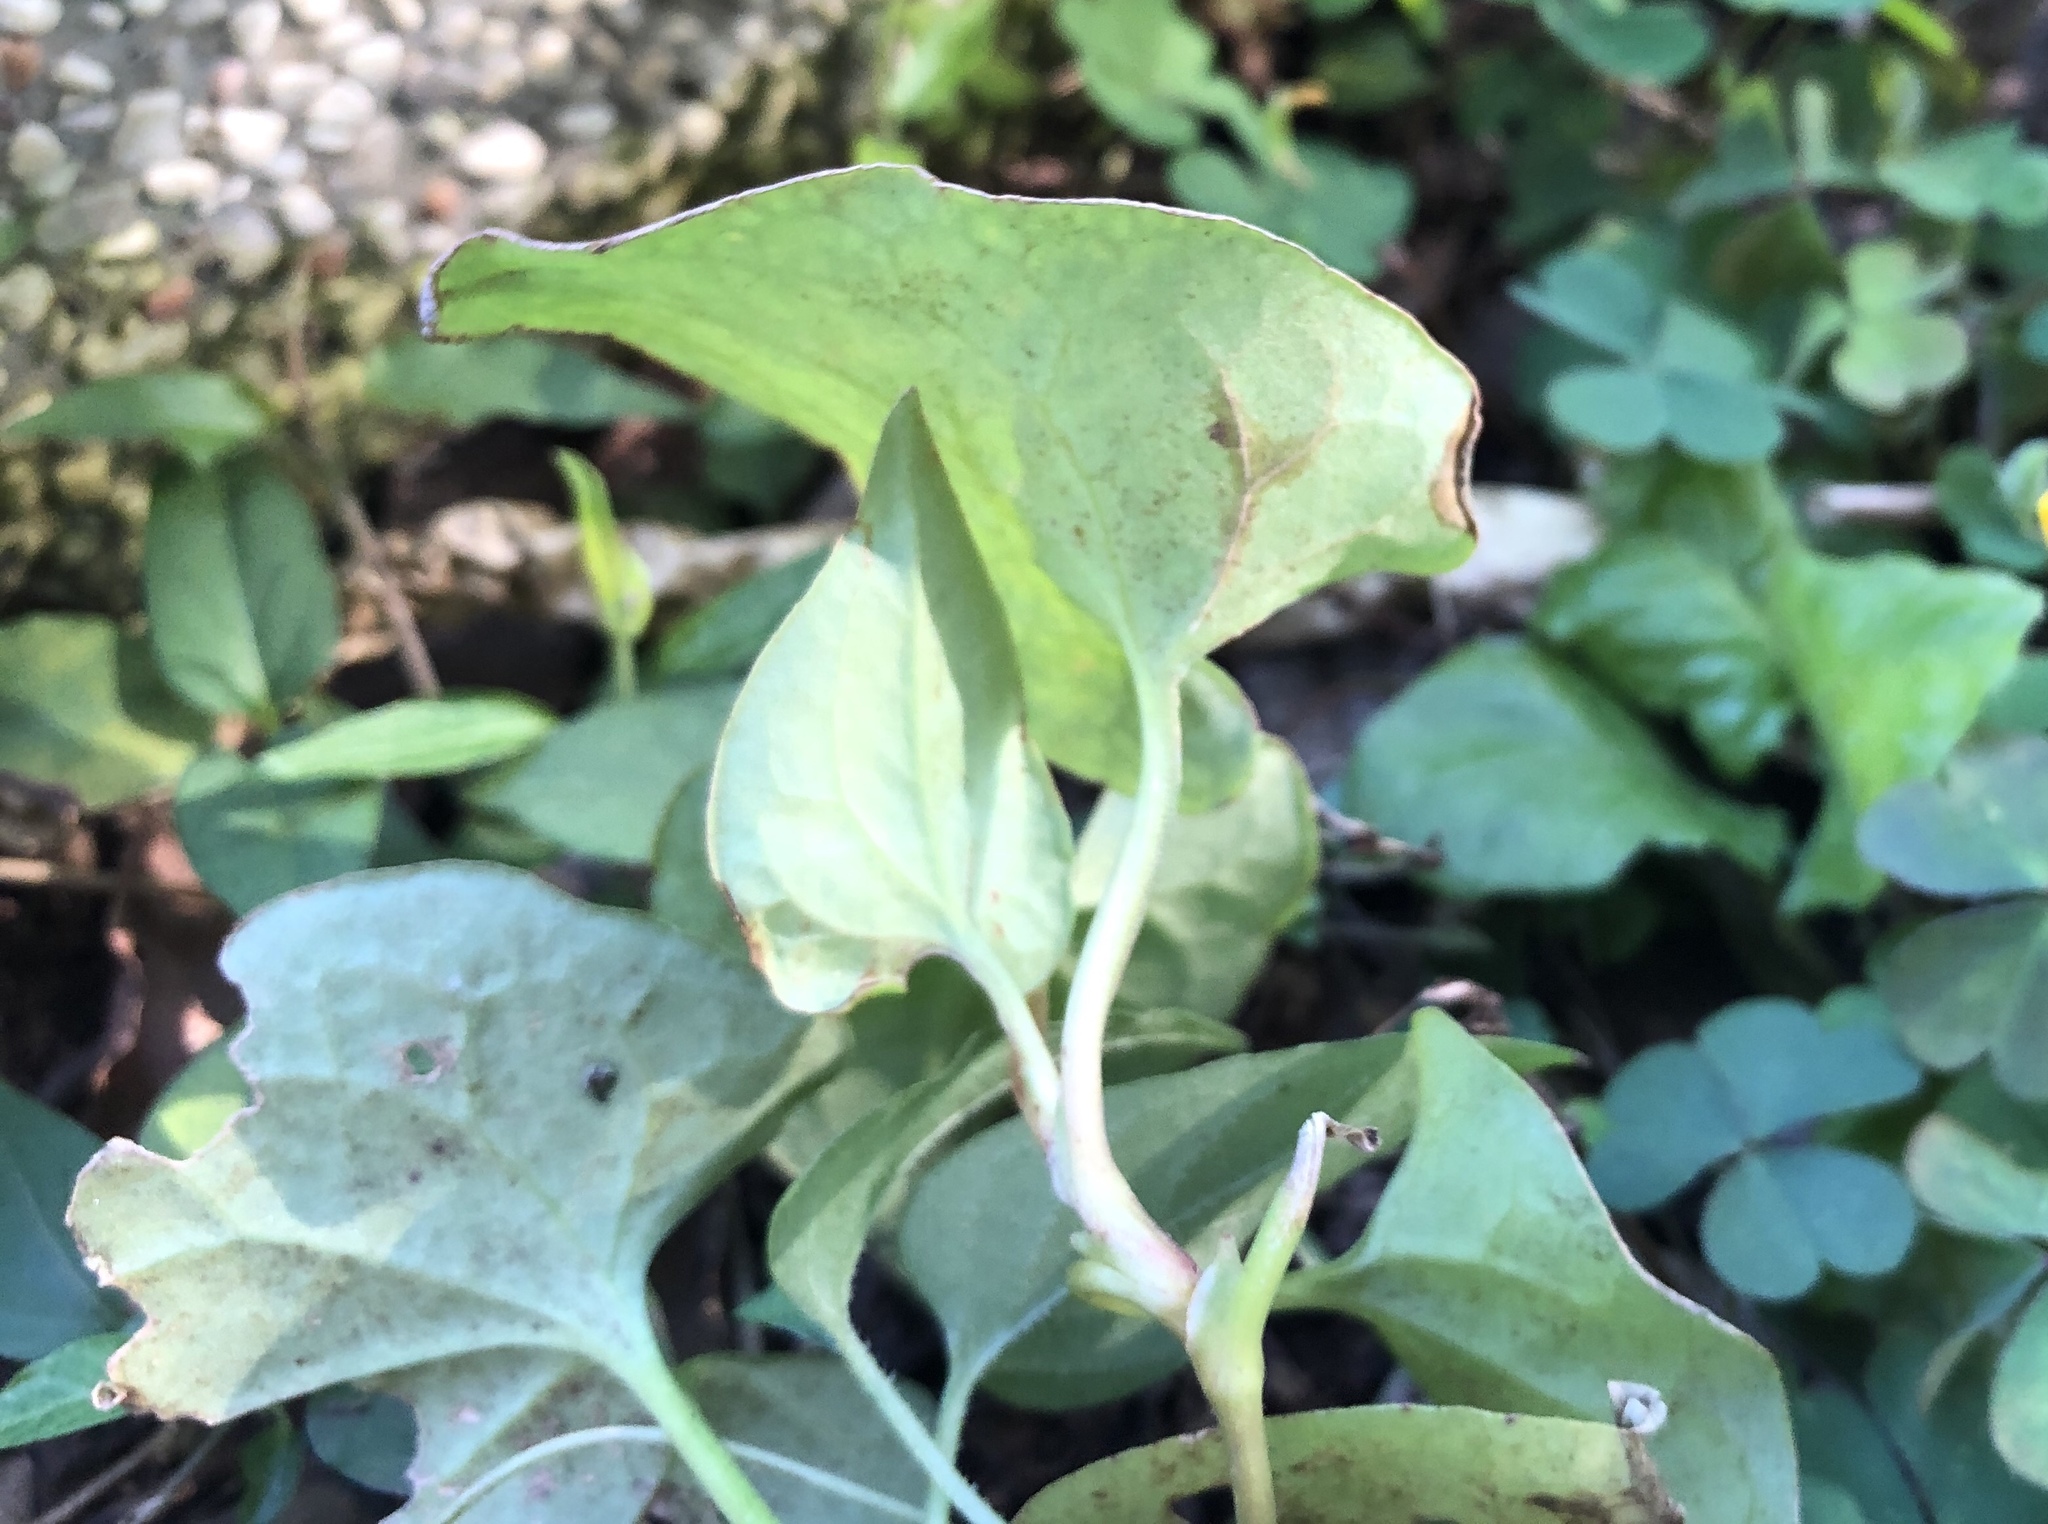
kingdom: Plantae
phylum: Tracheophyta
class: Magnoliopsida
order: Piperales
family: Saururaceae
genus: Houttuynia
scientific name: Houttuynia cordata
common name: Chameleon
